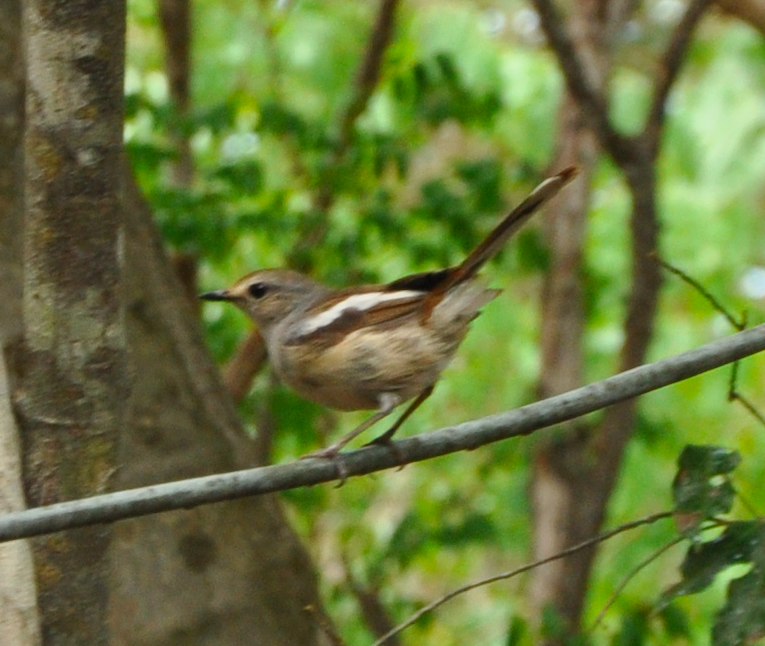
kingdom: Animalia
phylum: Chordata
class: Aves
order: Passeriformes
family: Muscicapidae
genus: Copsychus
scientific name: Copsychus albospecularis
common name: Madagascar magpie-robin
